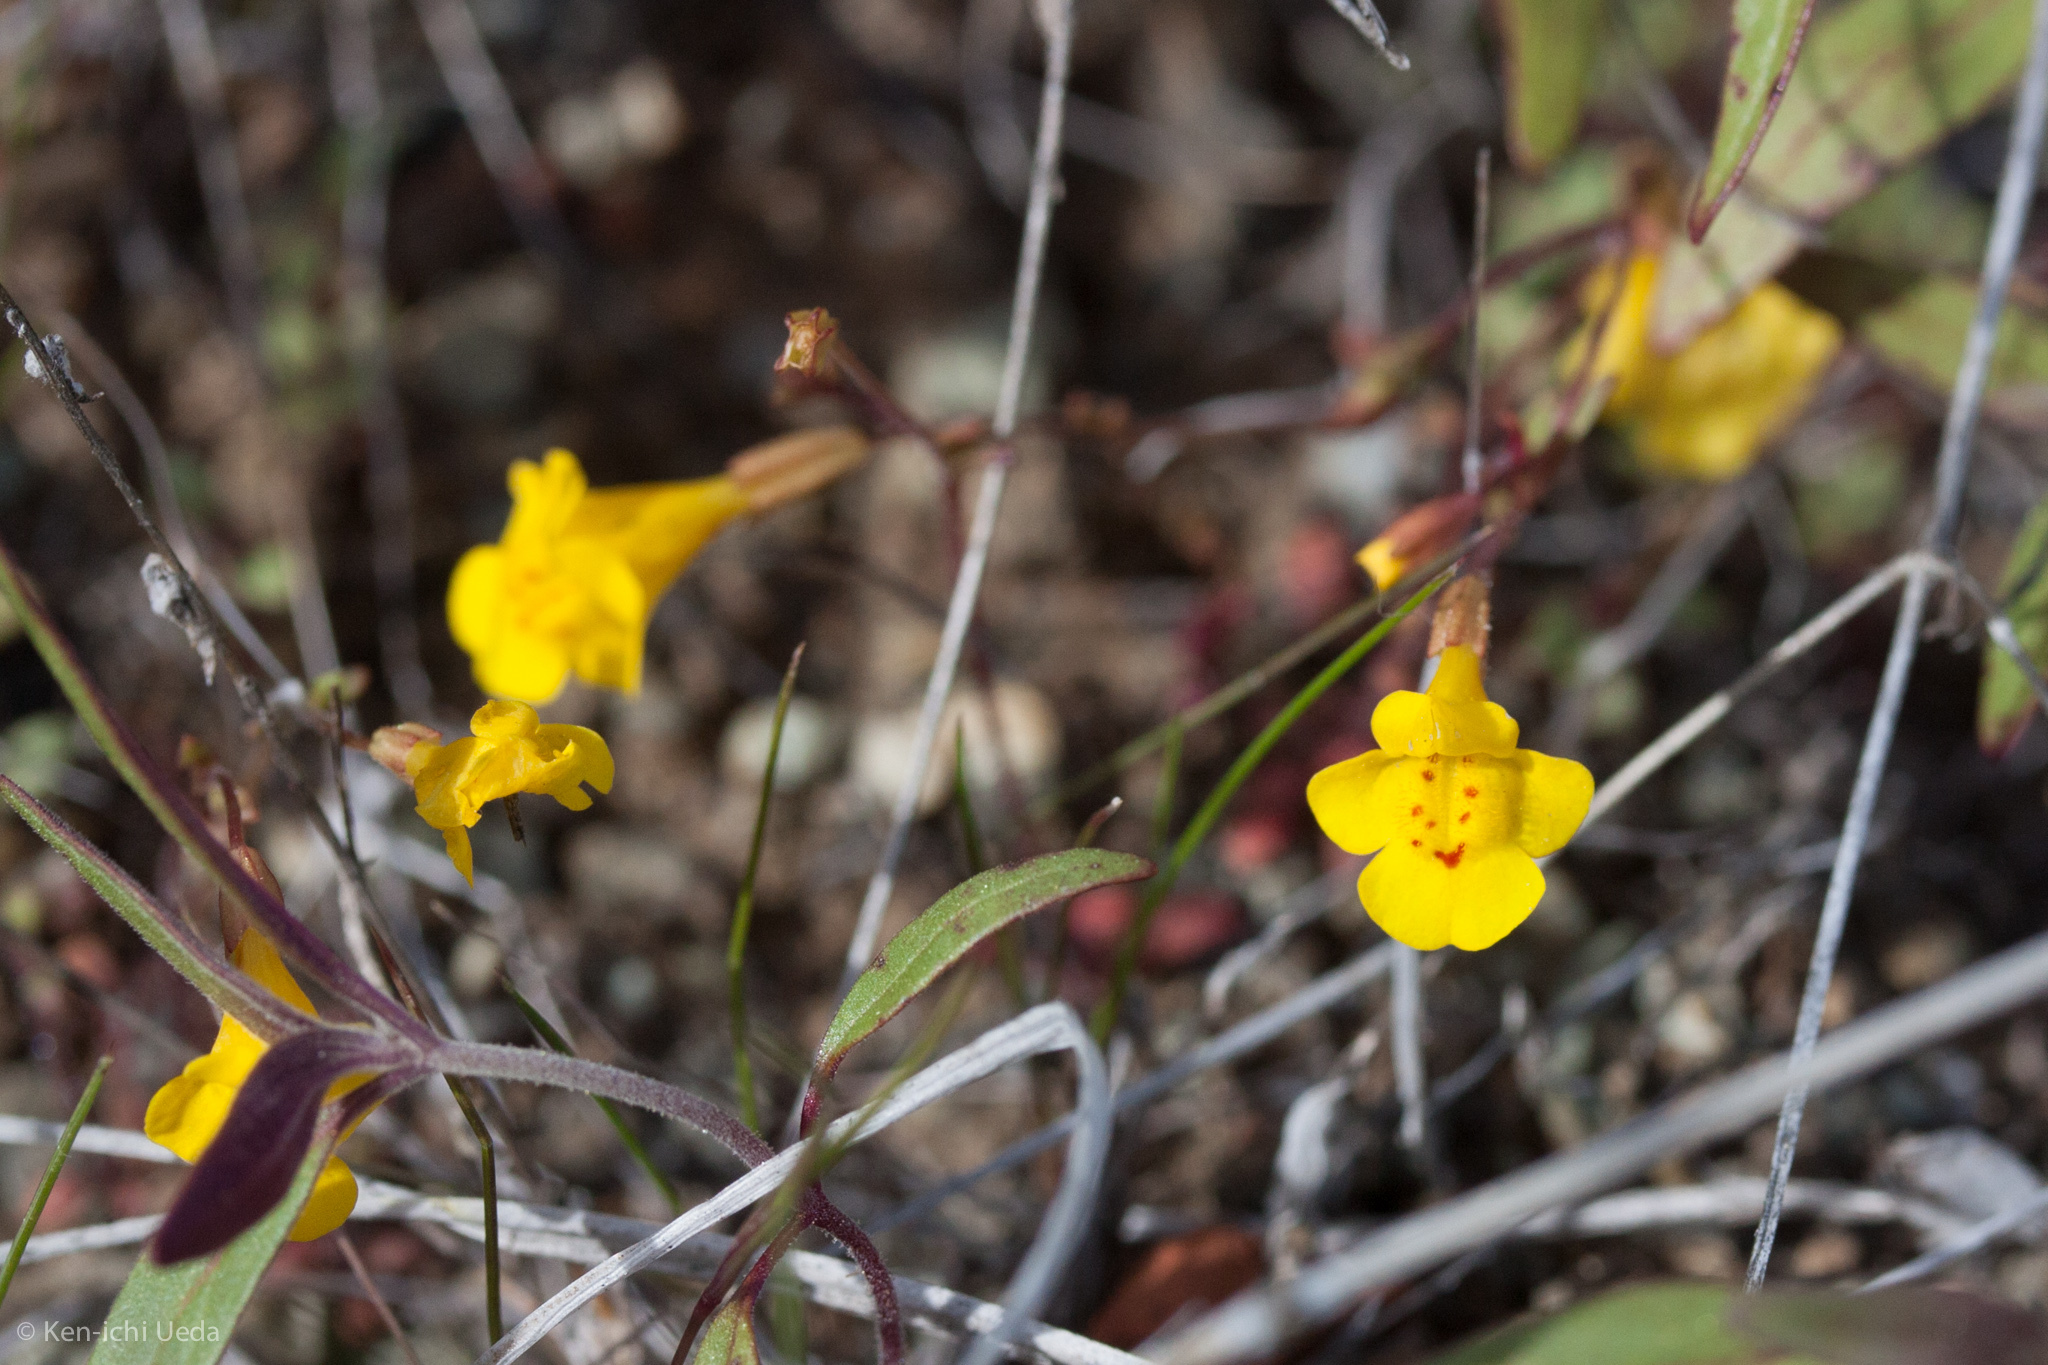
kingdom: Plantae
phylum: Tracheophyta
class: Magnoliopsida
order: Lamiales
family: Phrymaceae
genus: Erythranthe
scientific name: Erythranthe nudata
